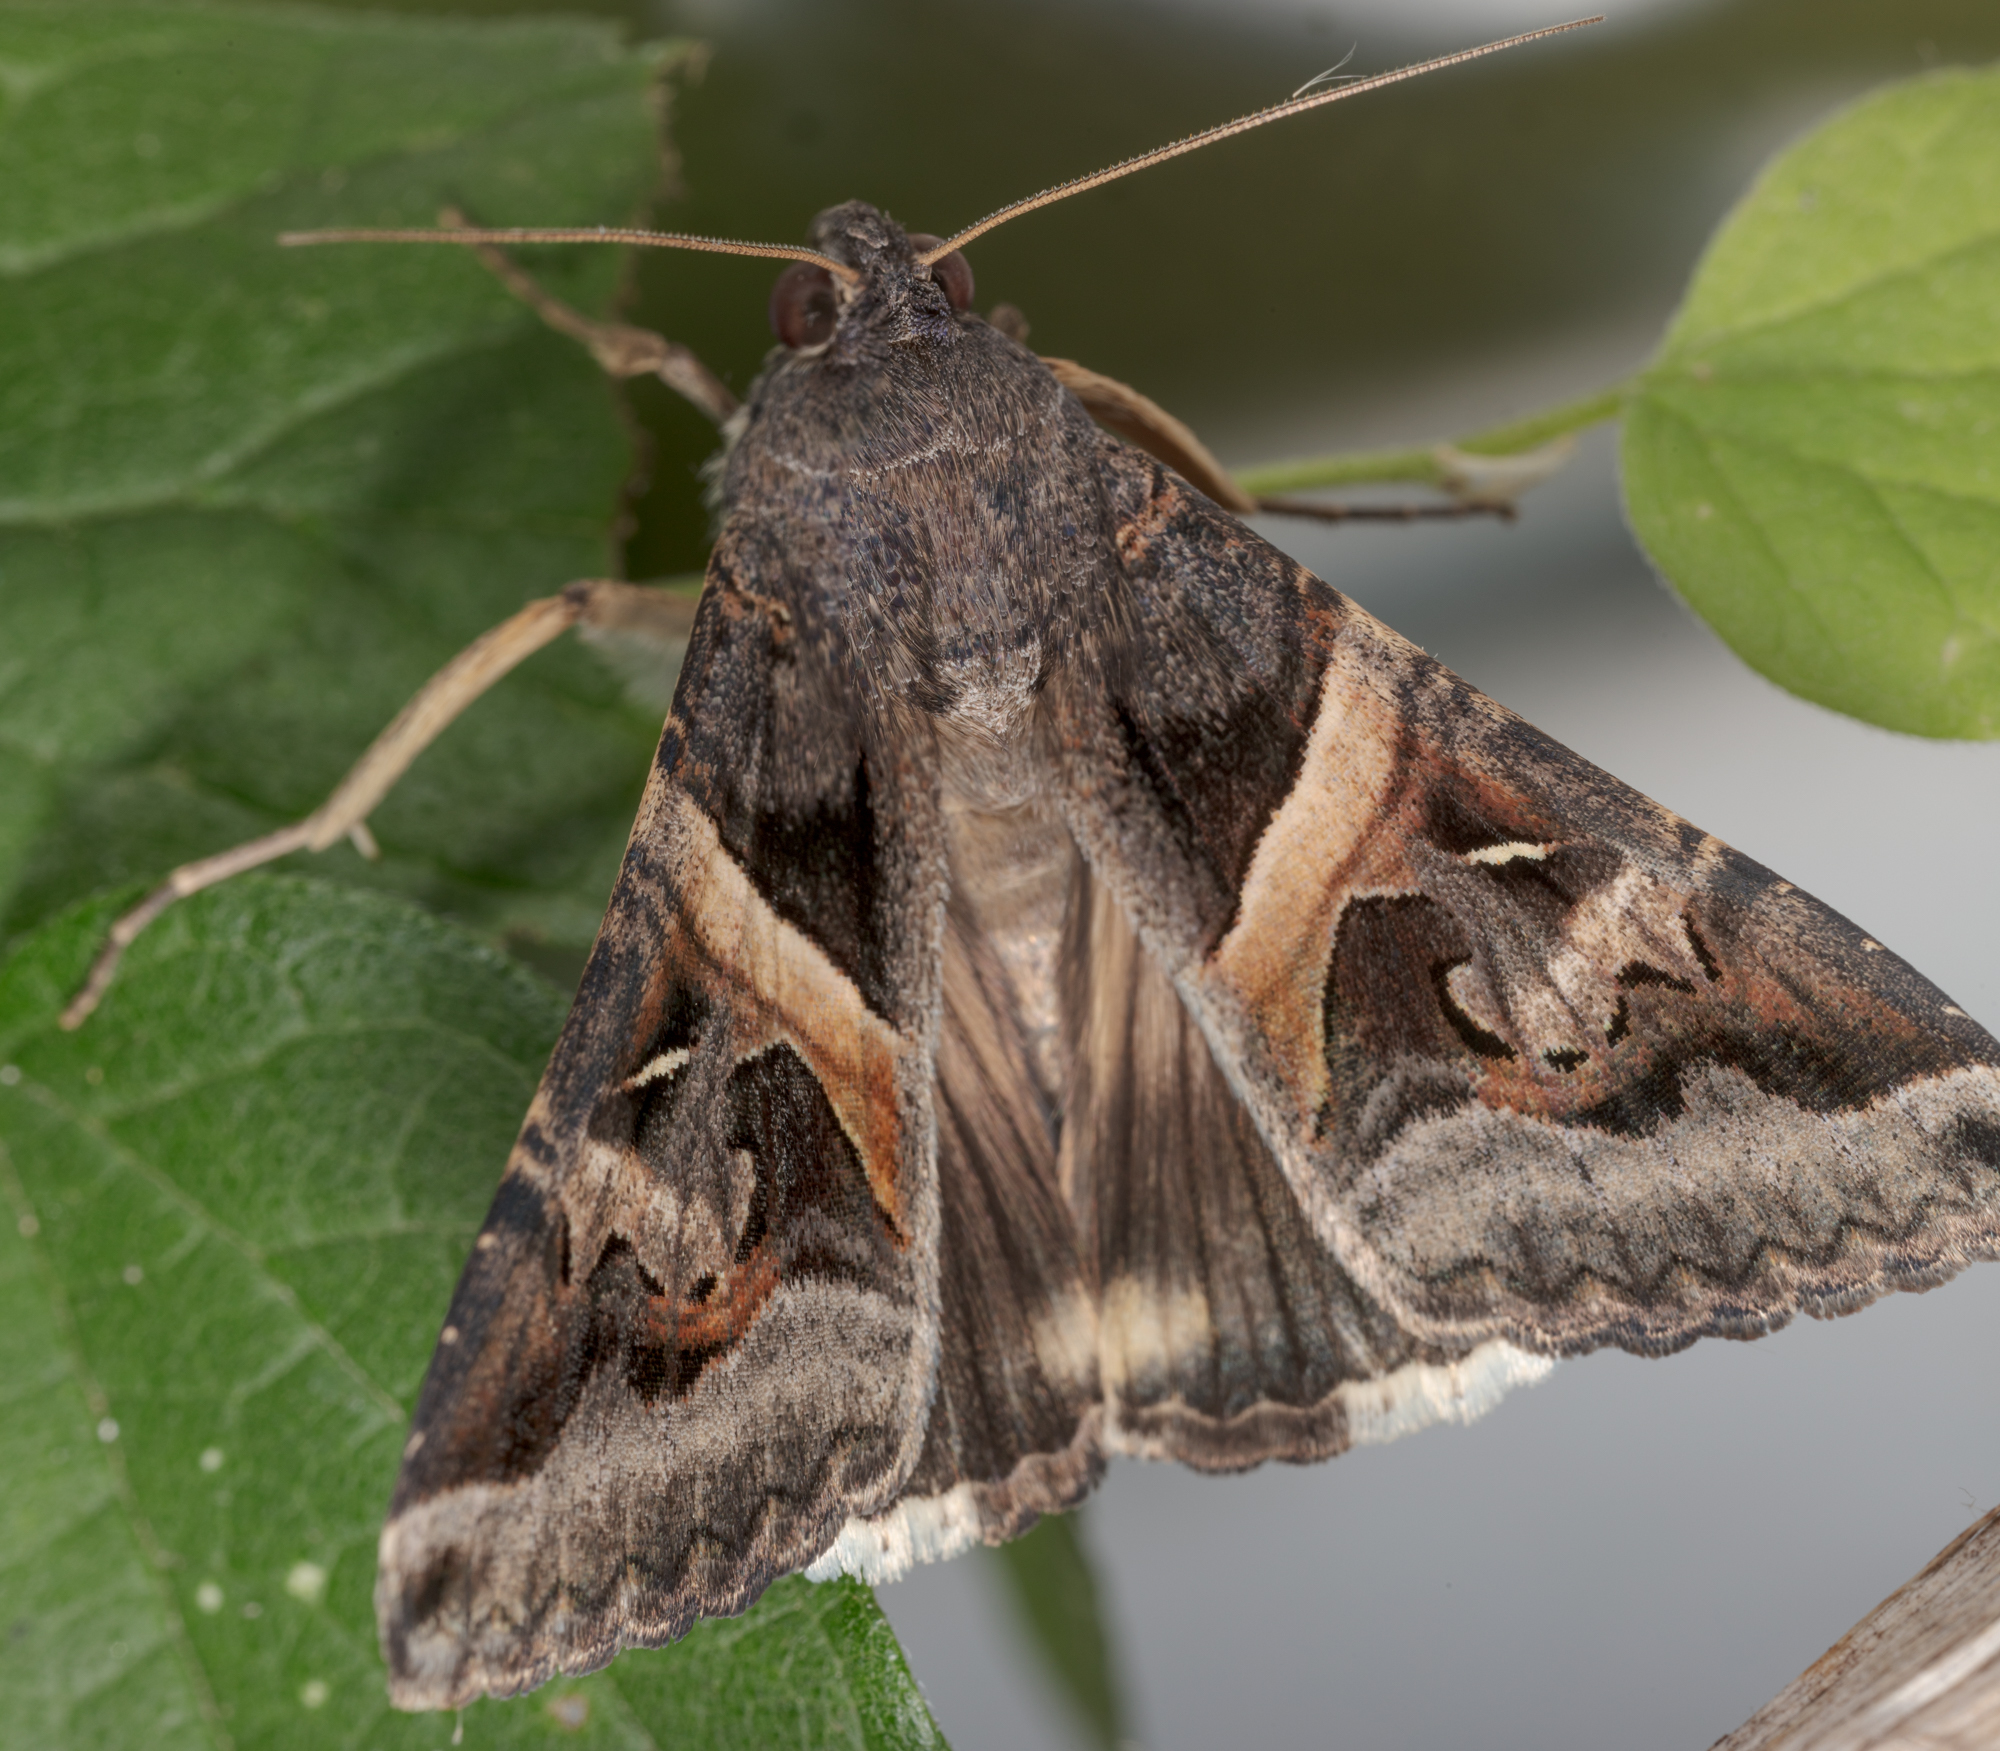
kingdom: Animalia
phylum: Arthropoda
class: Insecta
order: Lepidoptera
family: Erebidae
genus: Melipotis
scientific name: Melipotis indomita
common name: Moth
